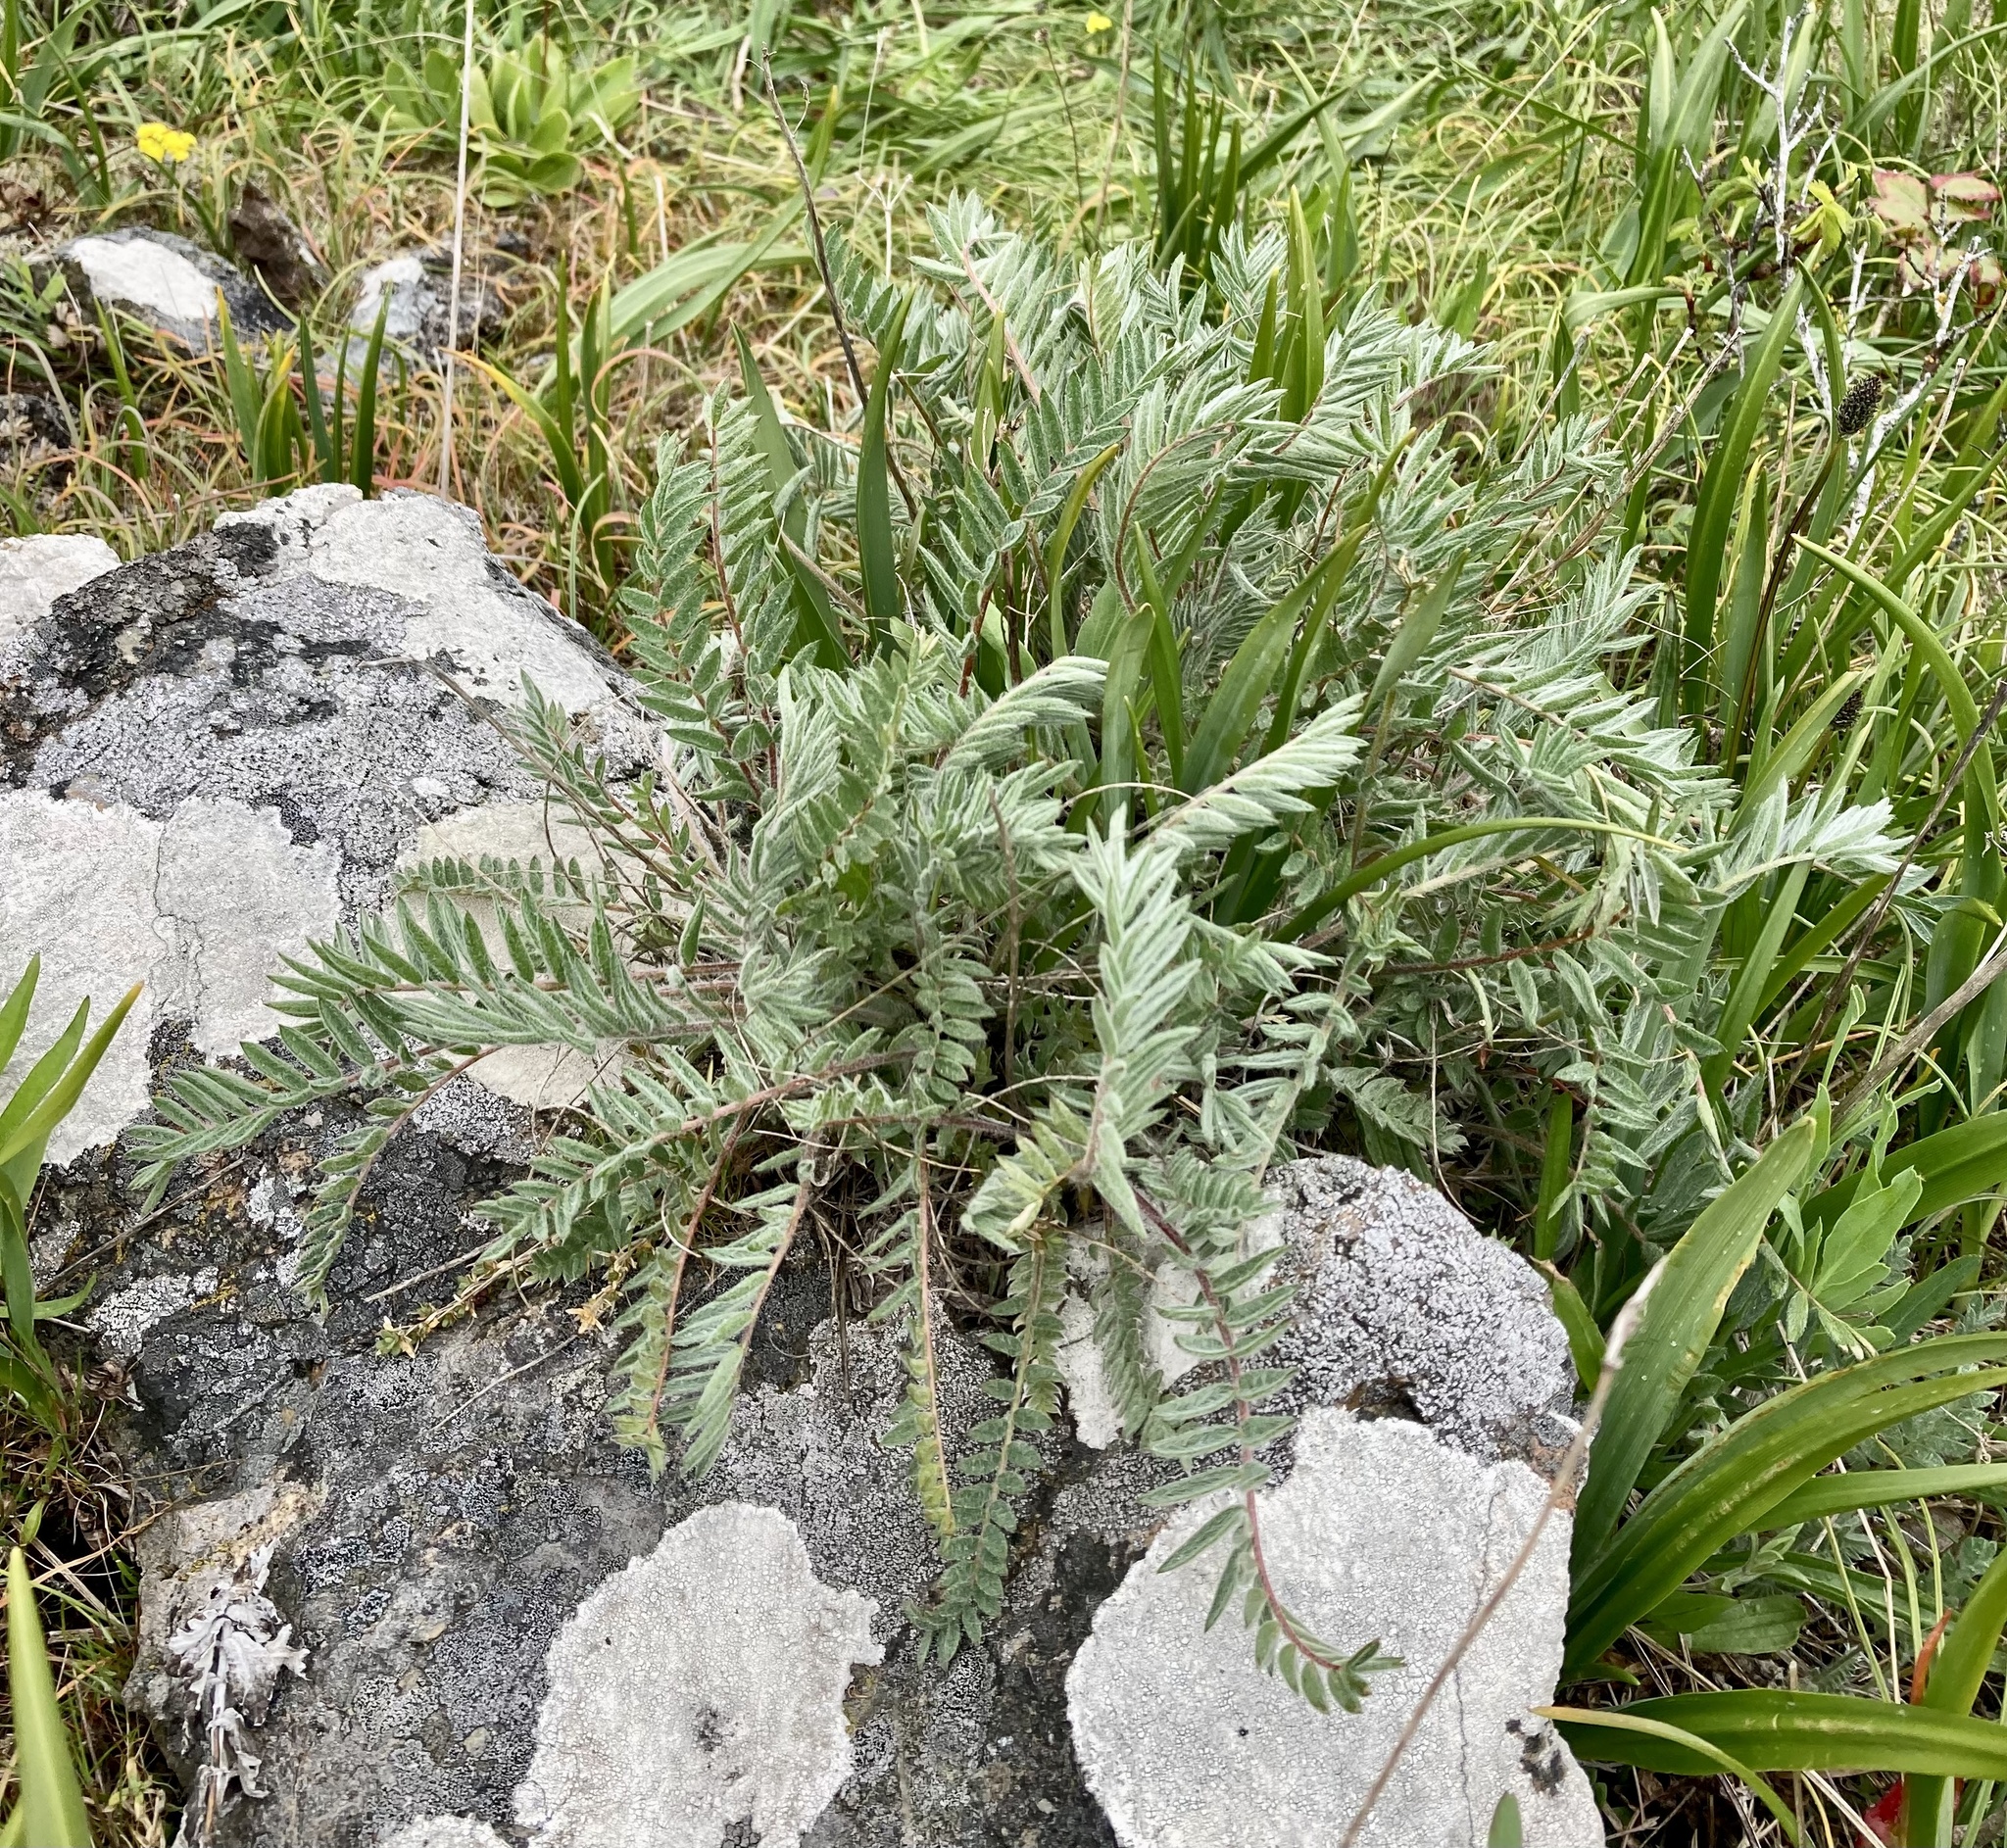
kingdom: Plantae
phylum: Tracheophyta
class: Magnoliopsida
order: Fabales
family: Fabaceae
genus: Oxytropis
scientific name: Oxytropis campestris
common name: Field locoweed
